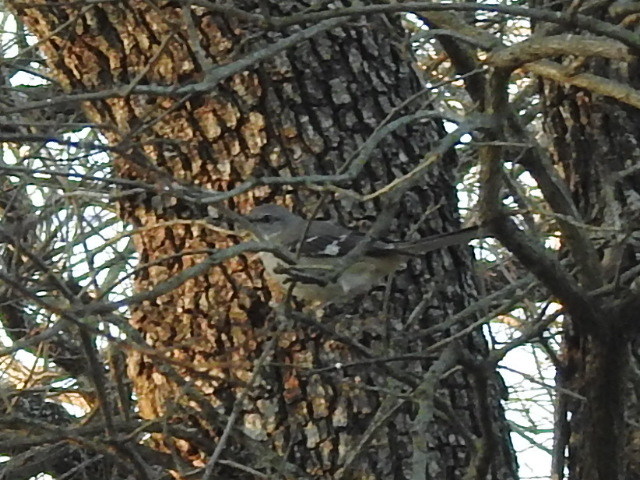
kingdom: Animalia
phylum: Chordata
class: Aves
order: Passeriformes
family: Mimidae
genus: Mimus
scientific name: Mimus polyglottos
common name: Northern mockingbird
